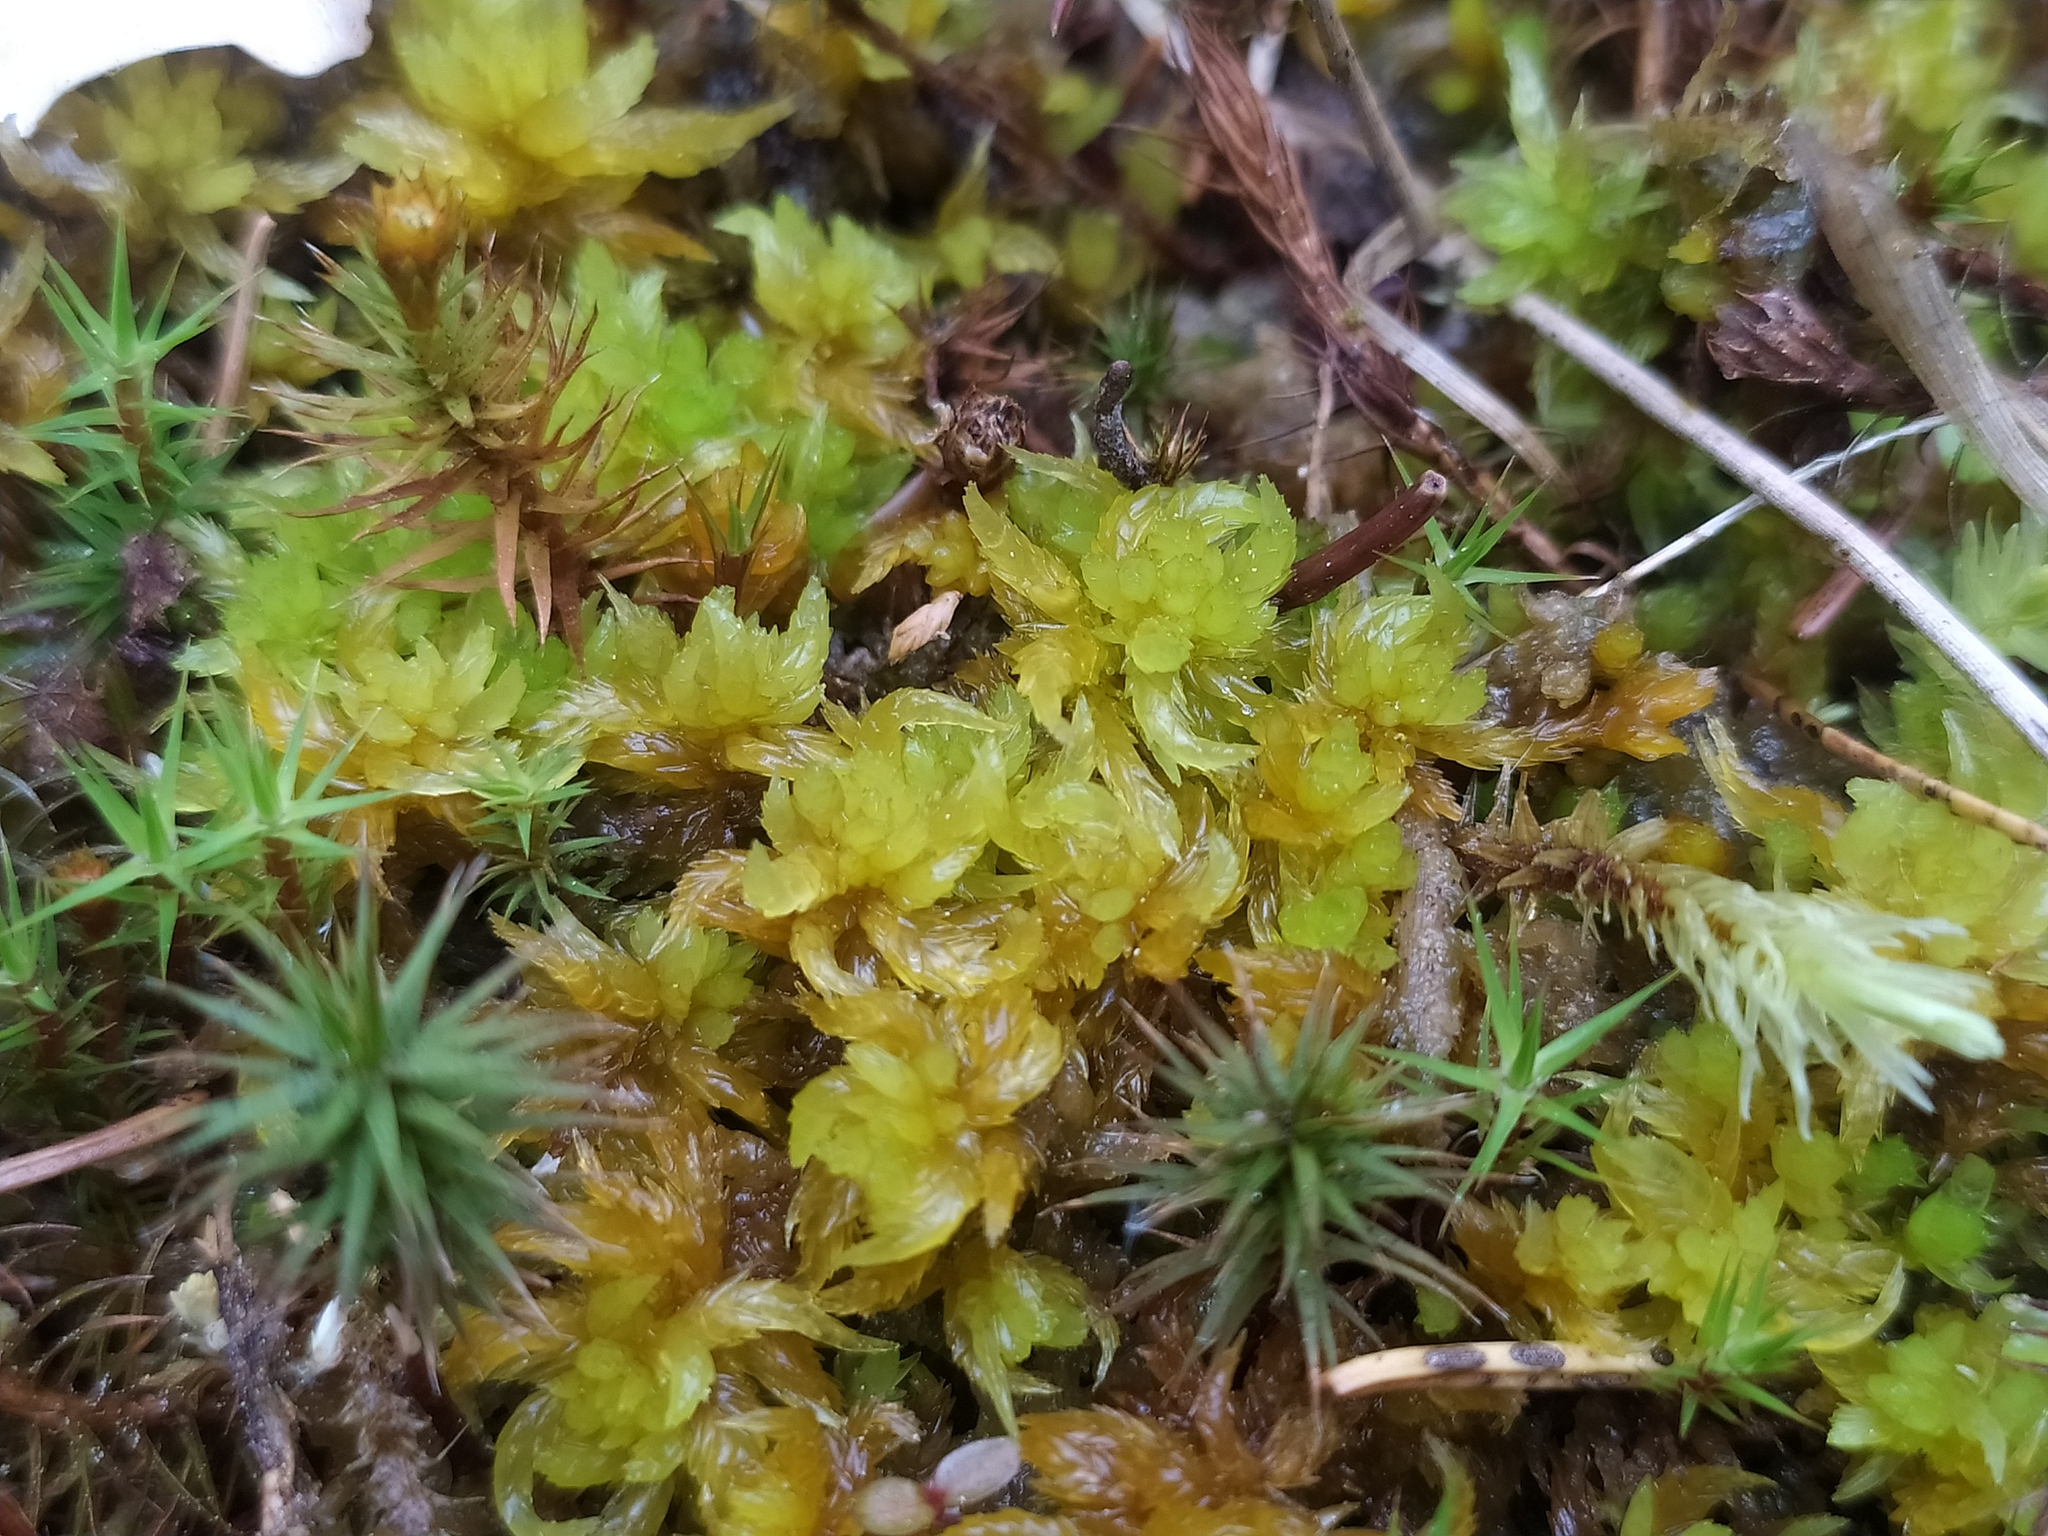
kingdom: Plantae
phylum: Bryophyta
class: Sphagnopsida
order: Sphagnales
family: Sphagnaceae
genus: Sphagnum
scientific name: Sphagnum denticulatum
